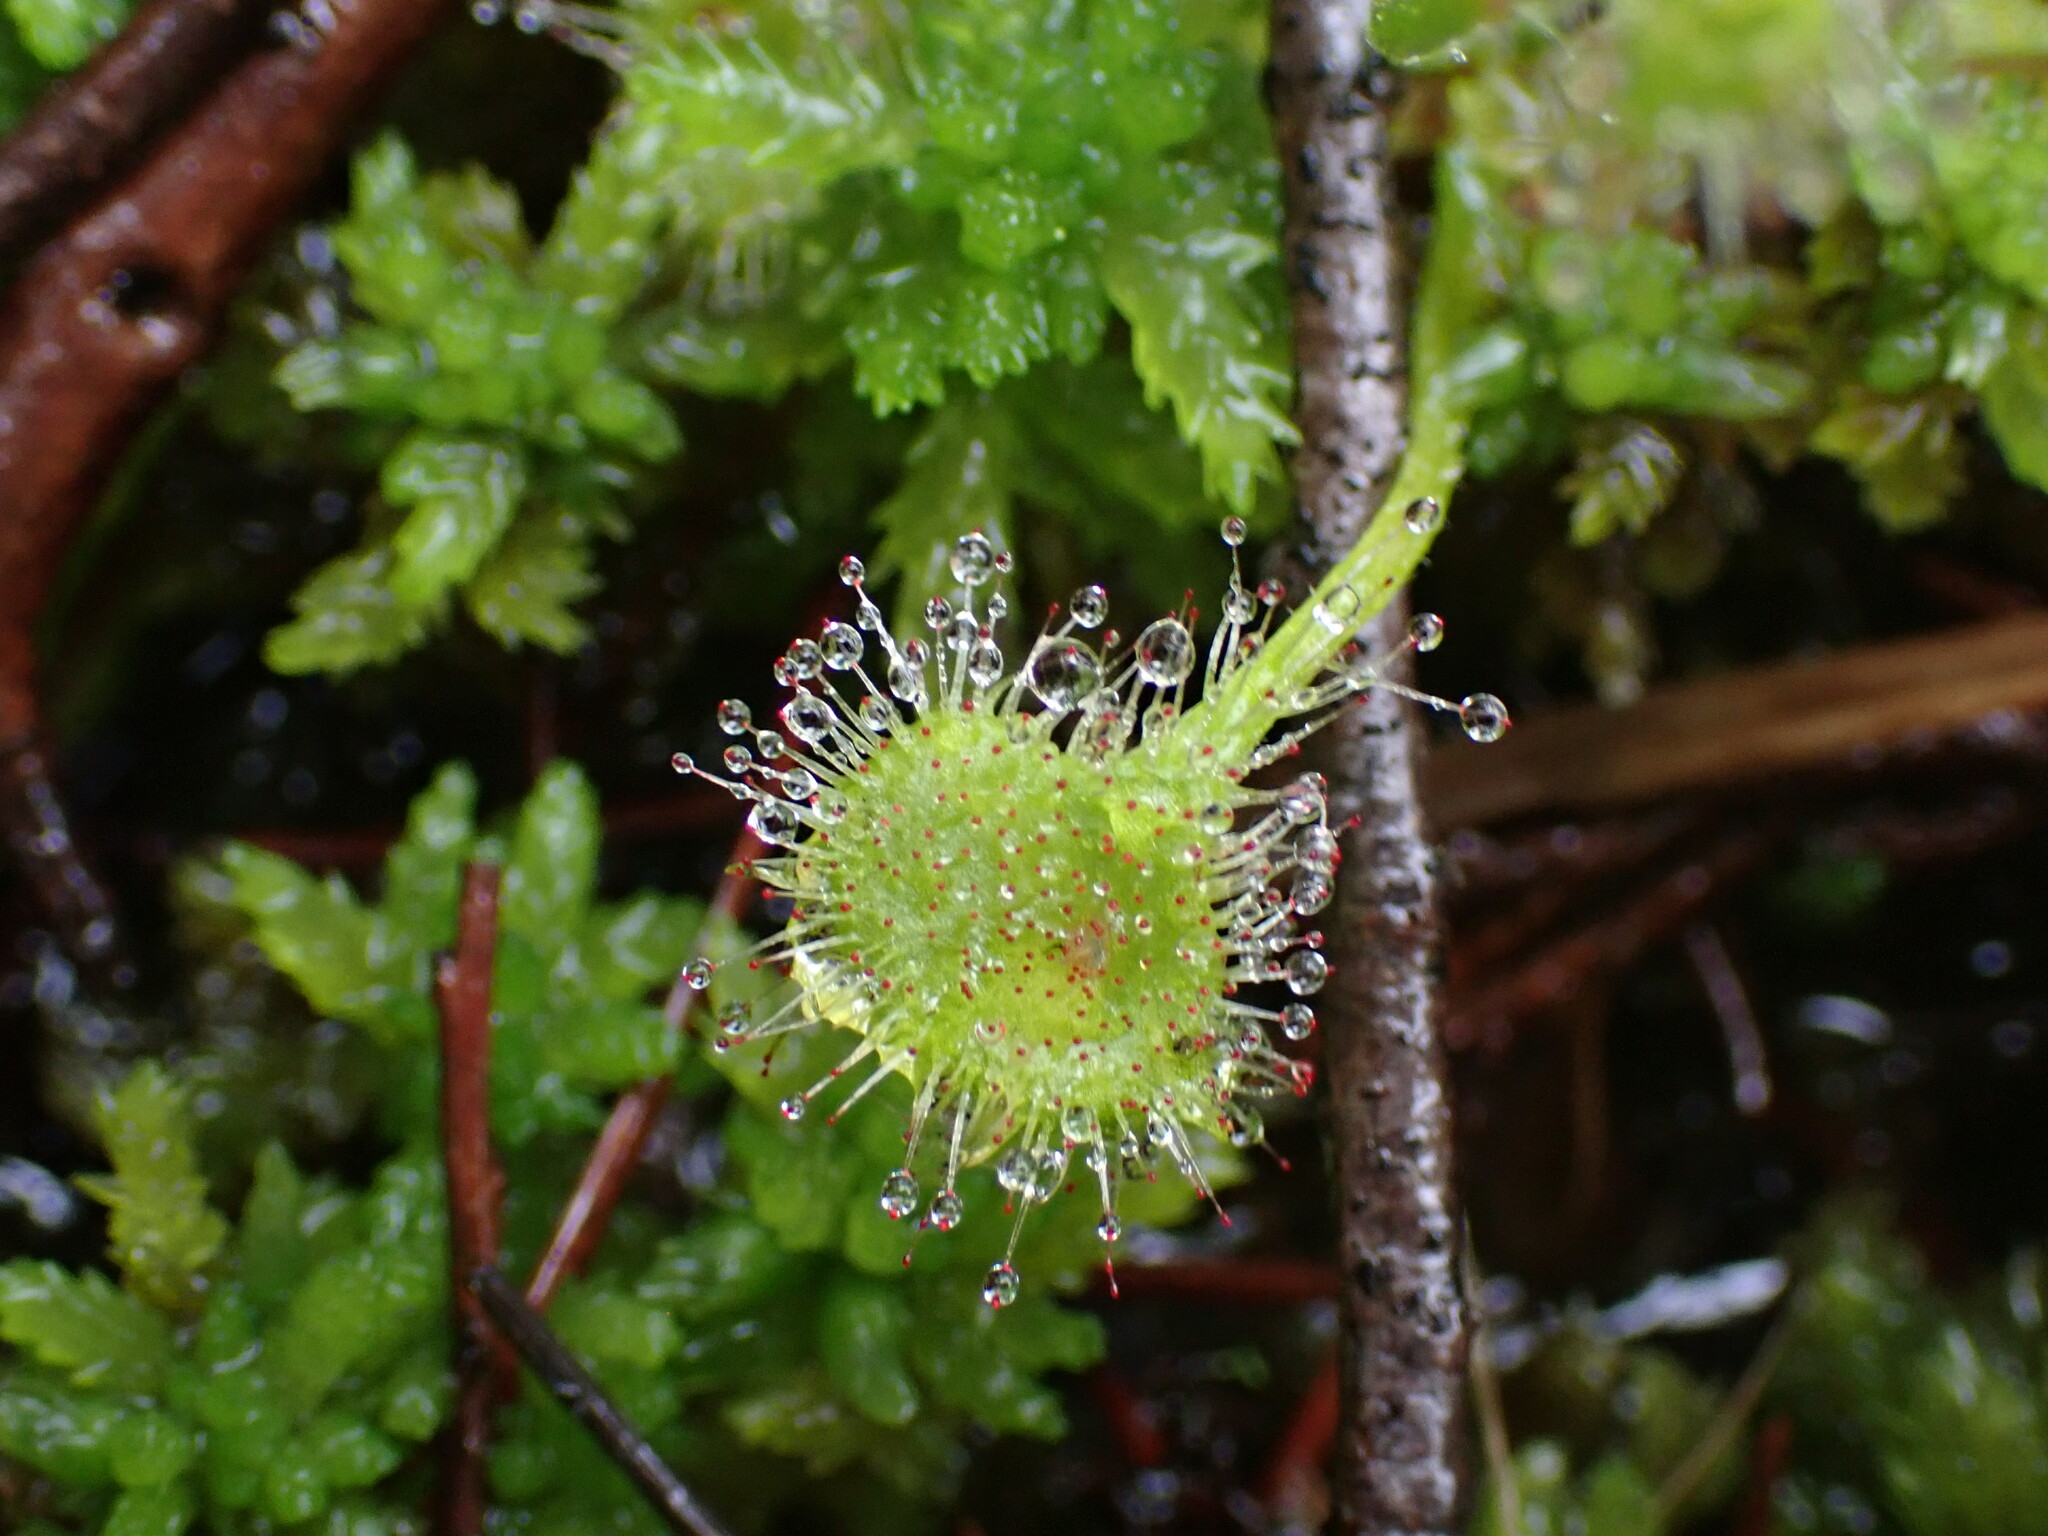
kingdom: Plantae
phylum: Tracheophyta
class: Magnoliopsida
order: Caryophyllales
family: Droseraceae
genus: Drosera
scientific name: Drosera rotundifolia
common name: Round-leaved sundew
